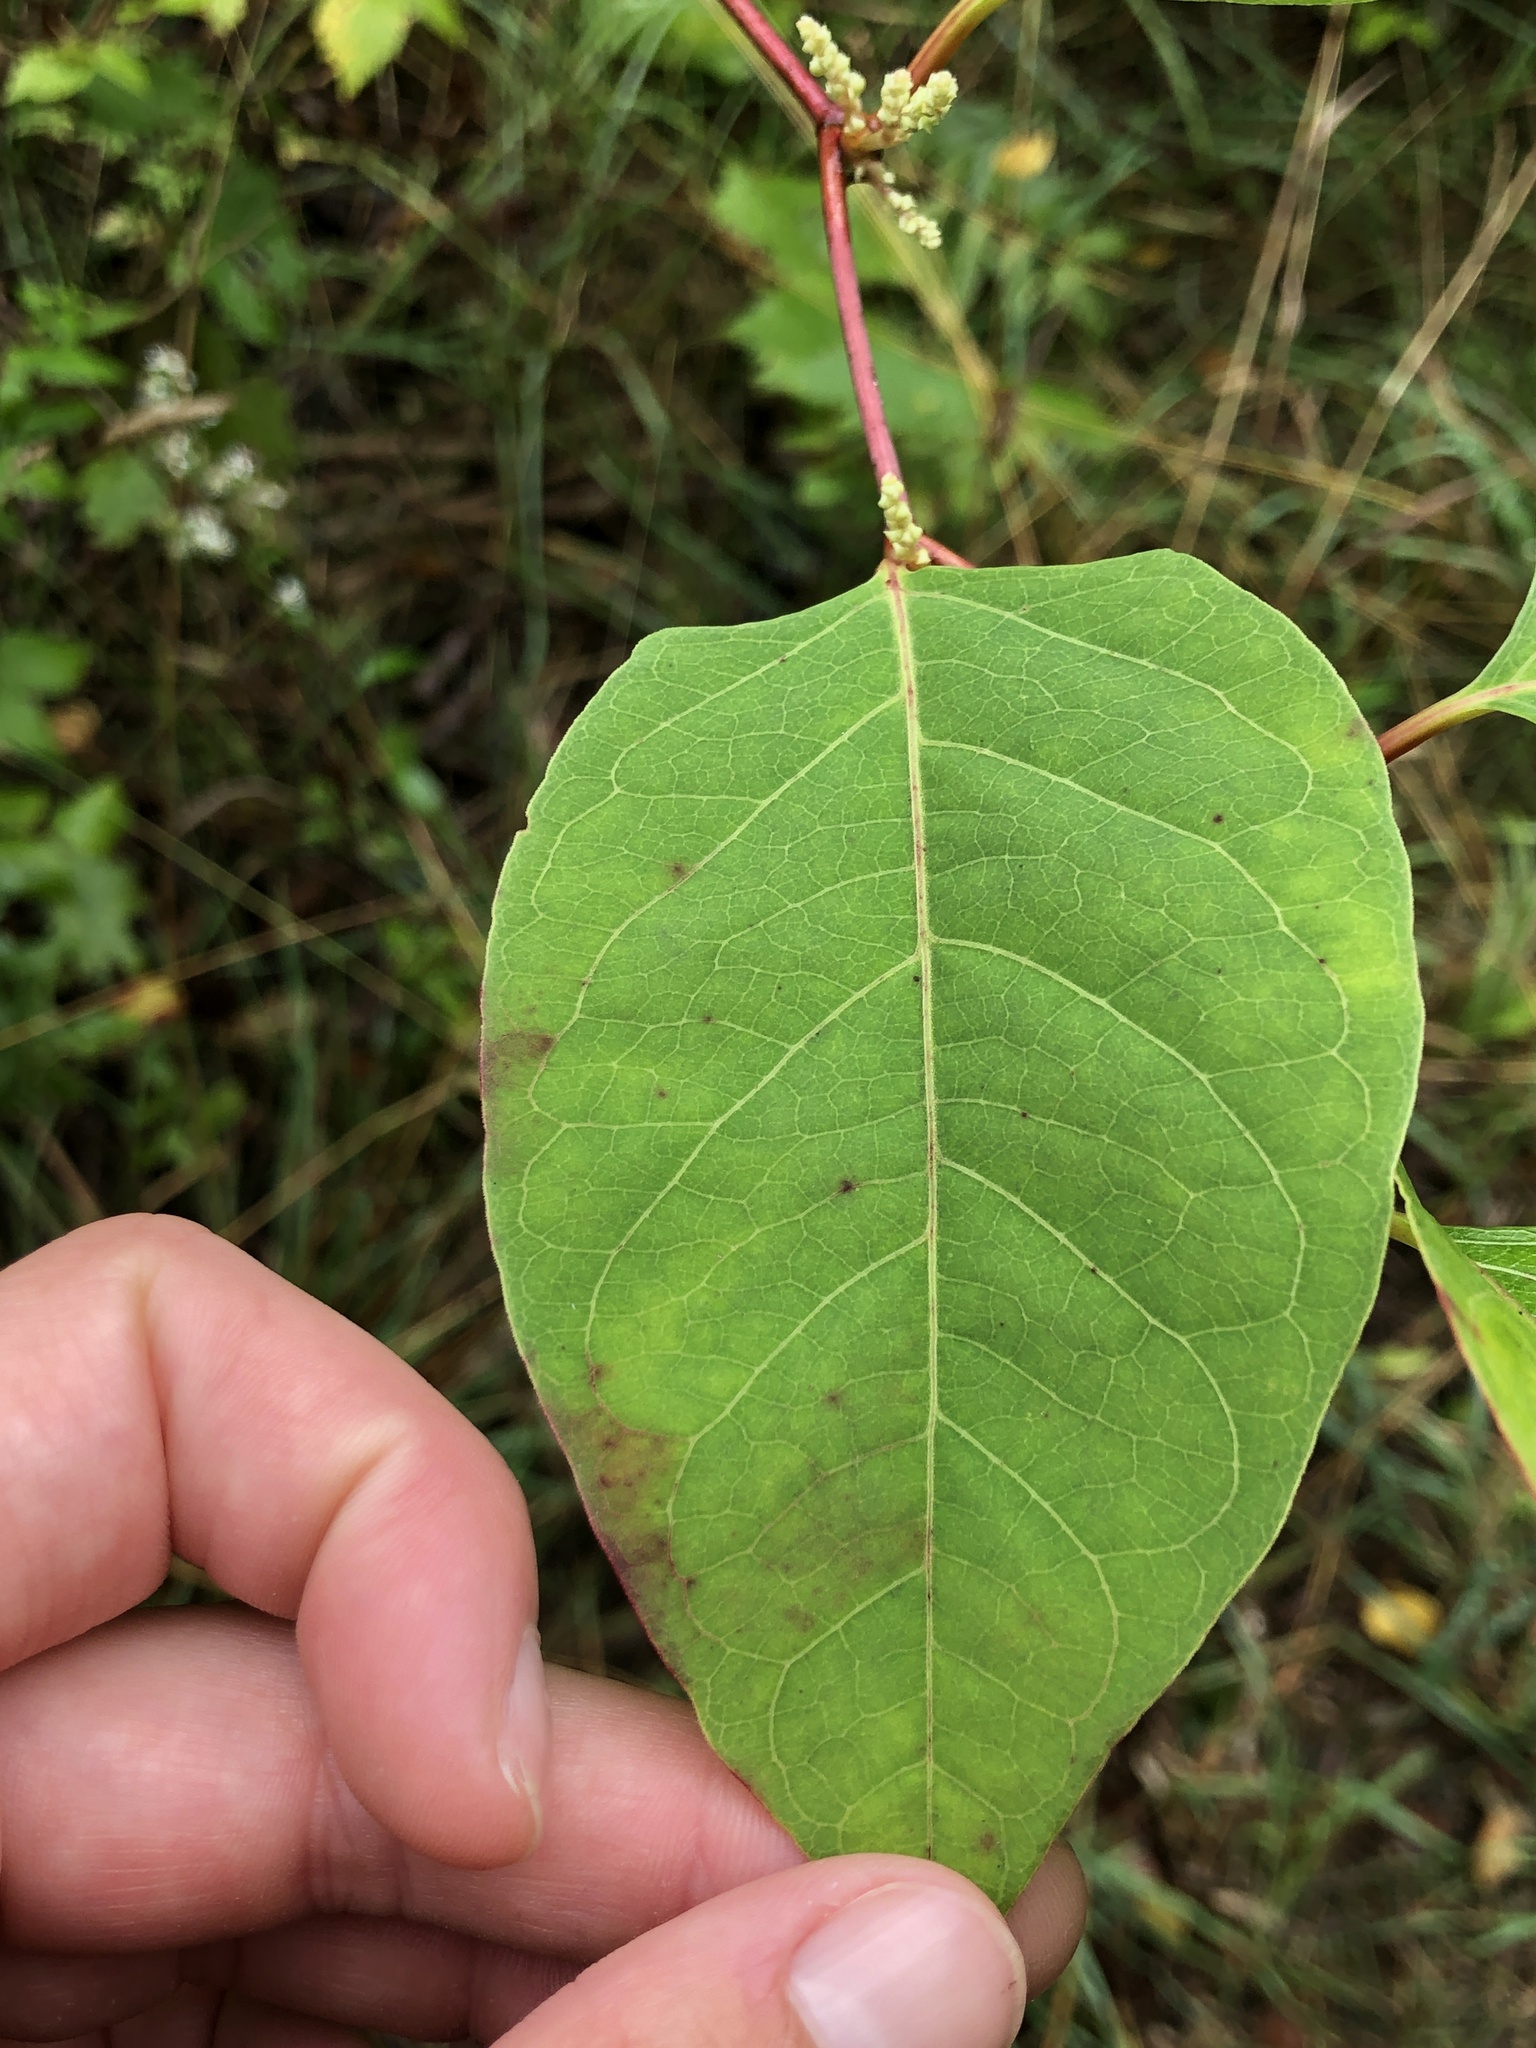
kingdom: Plantae
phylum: Tracheophyta
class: Magnoliopsida
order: Caryophyllales
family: Polygonaceae
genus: Reynoutria
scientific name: Reynoutria japonica
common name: Japanese knotweed
